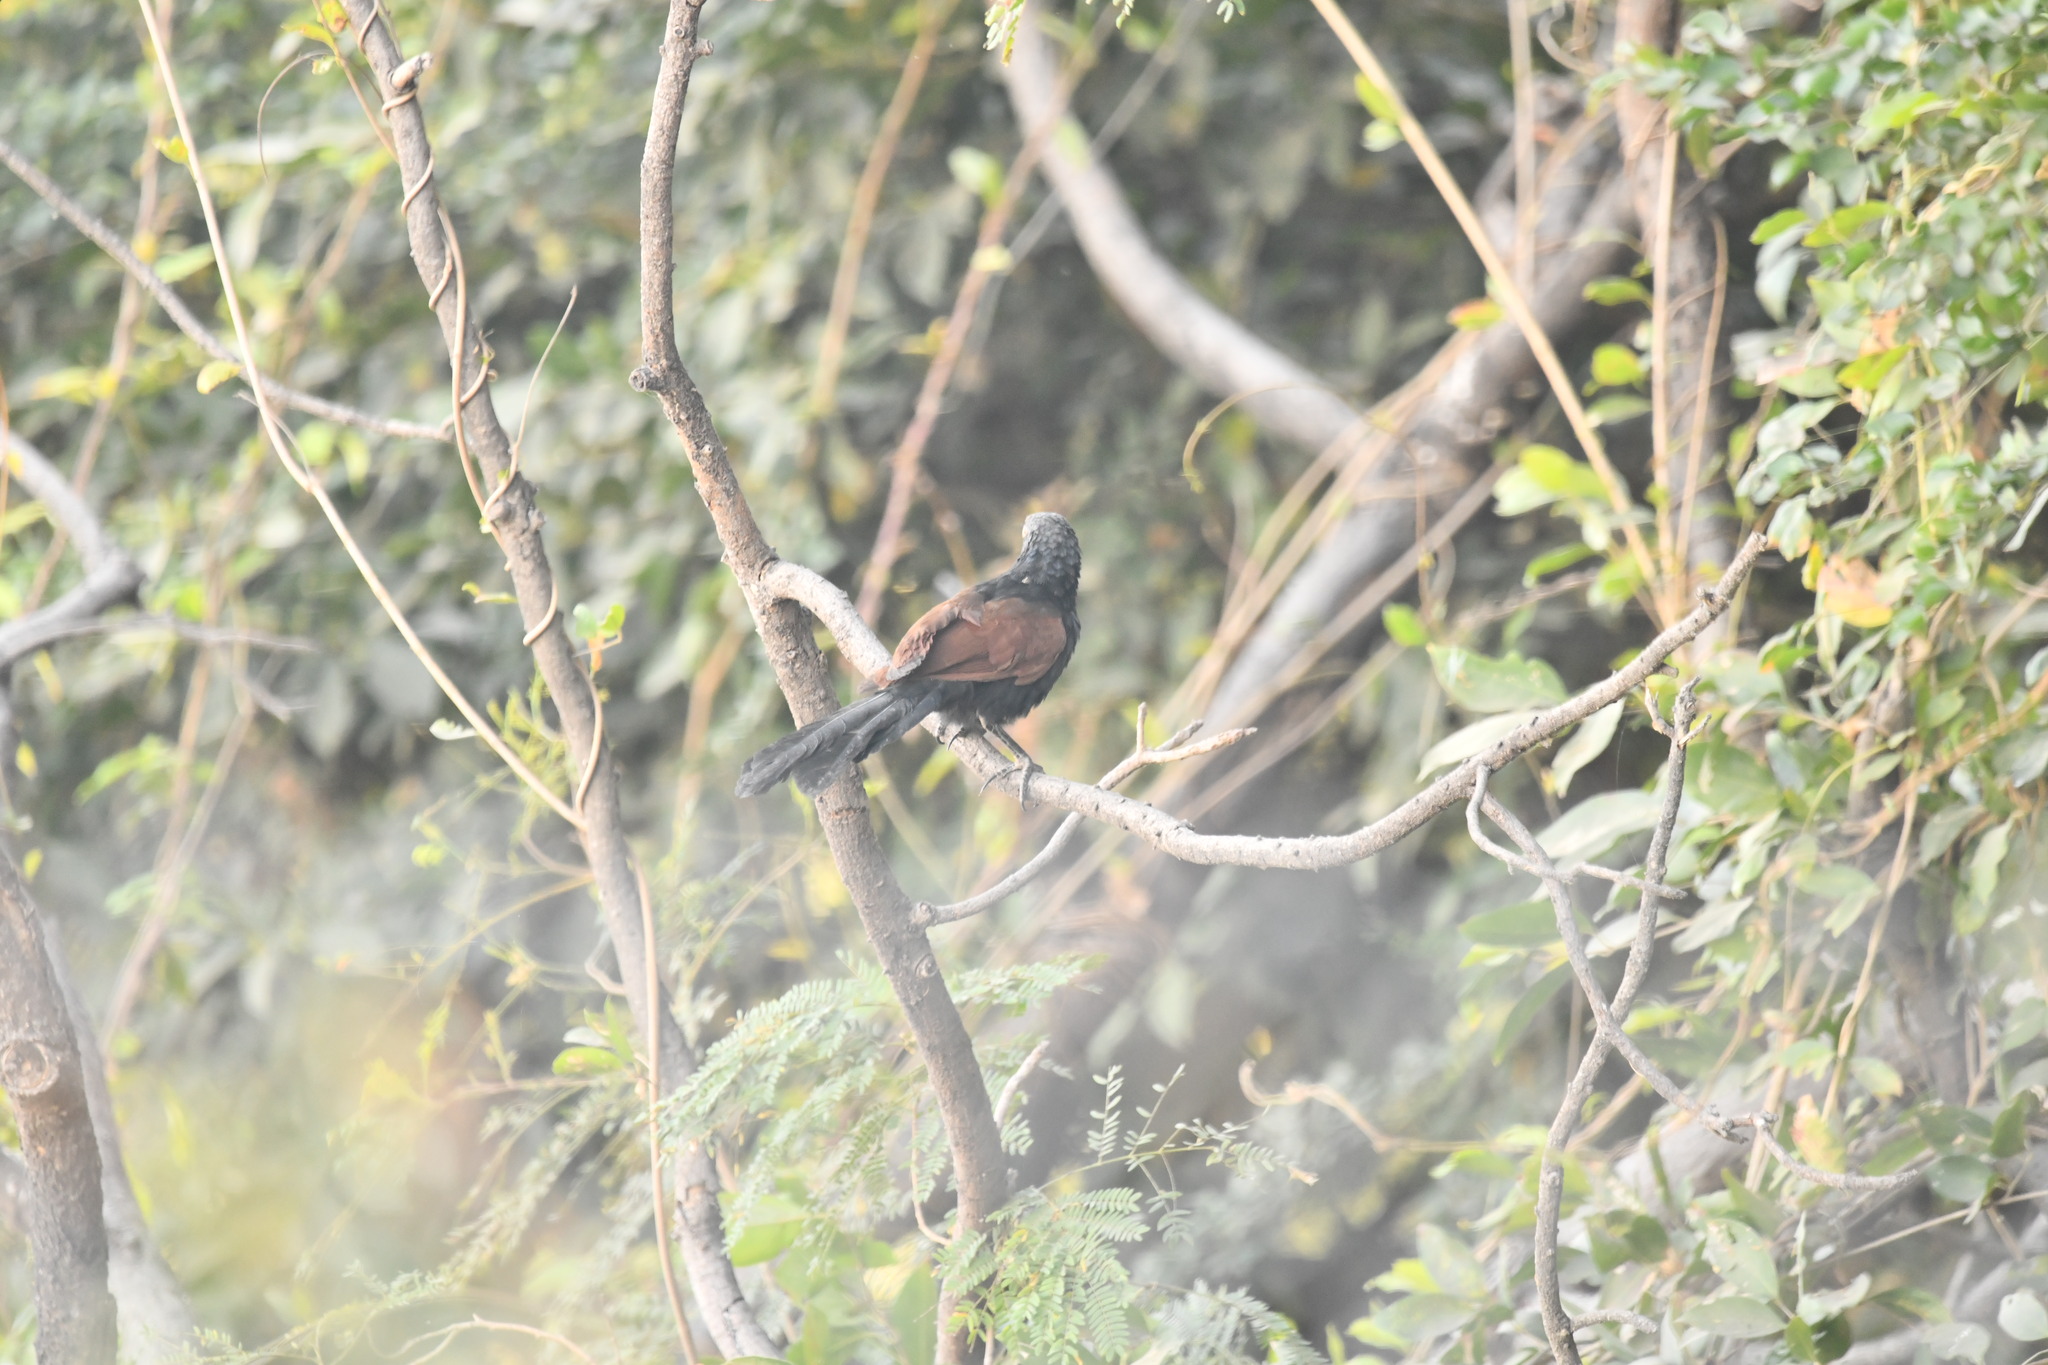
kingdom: Animalia
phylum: Chordata
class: Aves
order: Cuculiformes
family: Cuculidae
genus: Centropus
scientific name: Centropus sinensis
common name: Greater coucal
